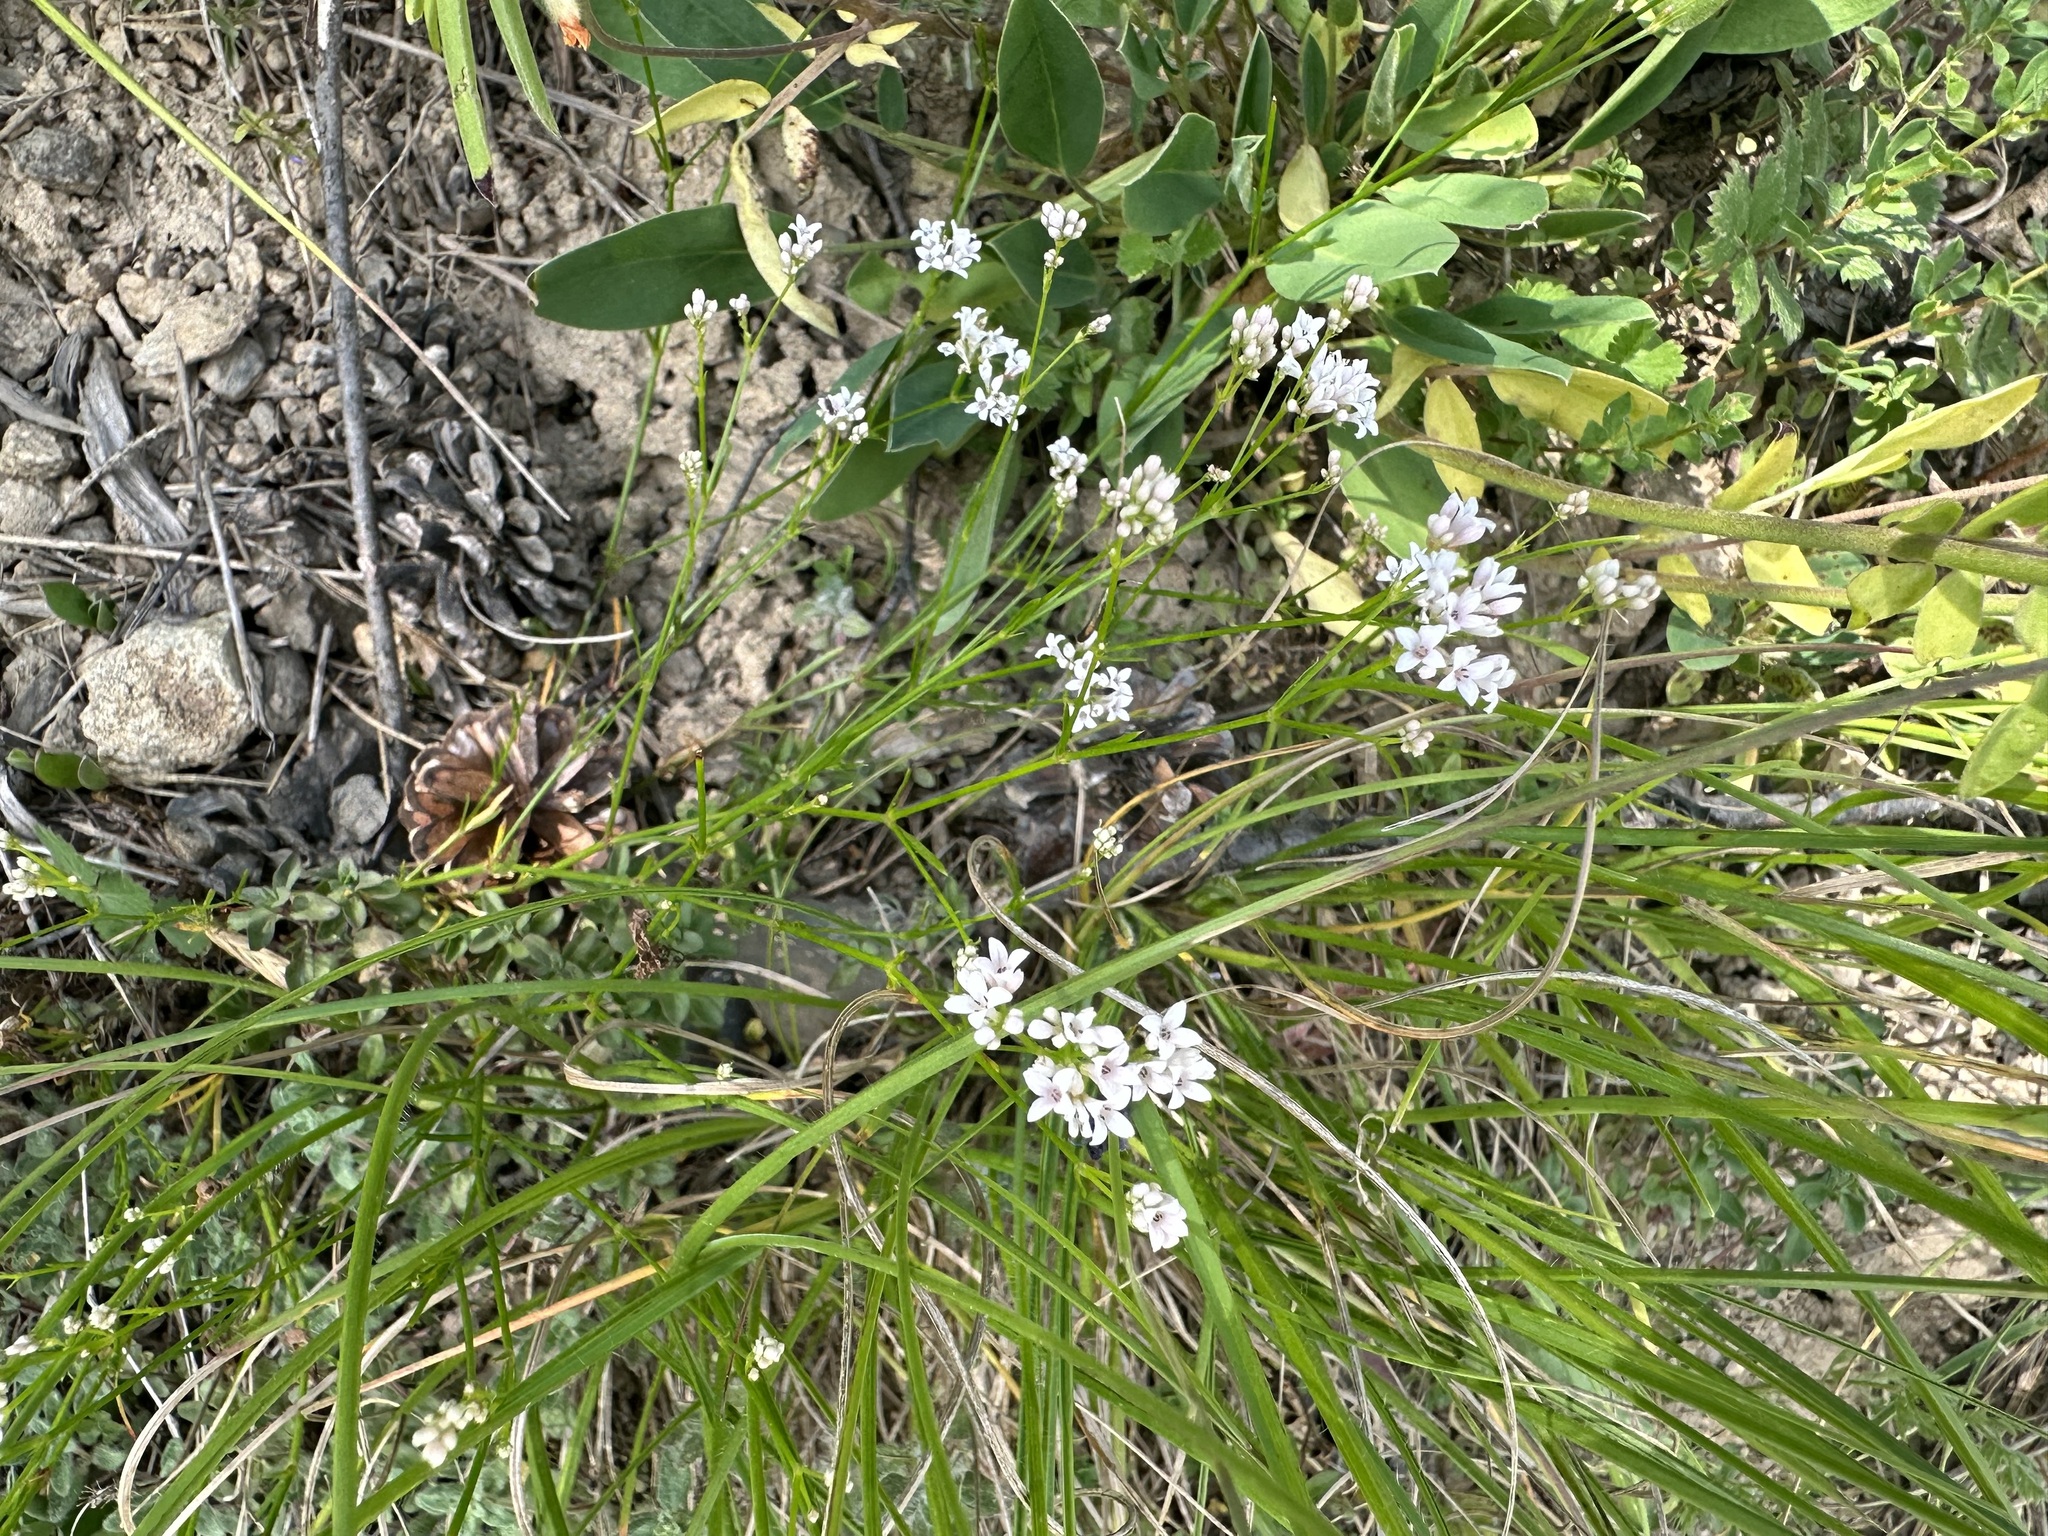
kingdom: Plantae
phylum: Tracheophyta
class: Magnoliopsida
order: Gentianales
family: Rubiaceae
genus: Cynanchica
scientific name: Cynanchica pyrenaica
